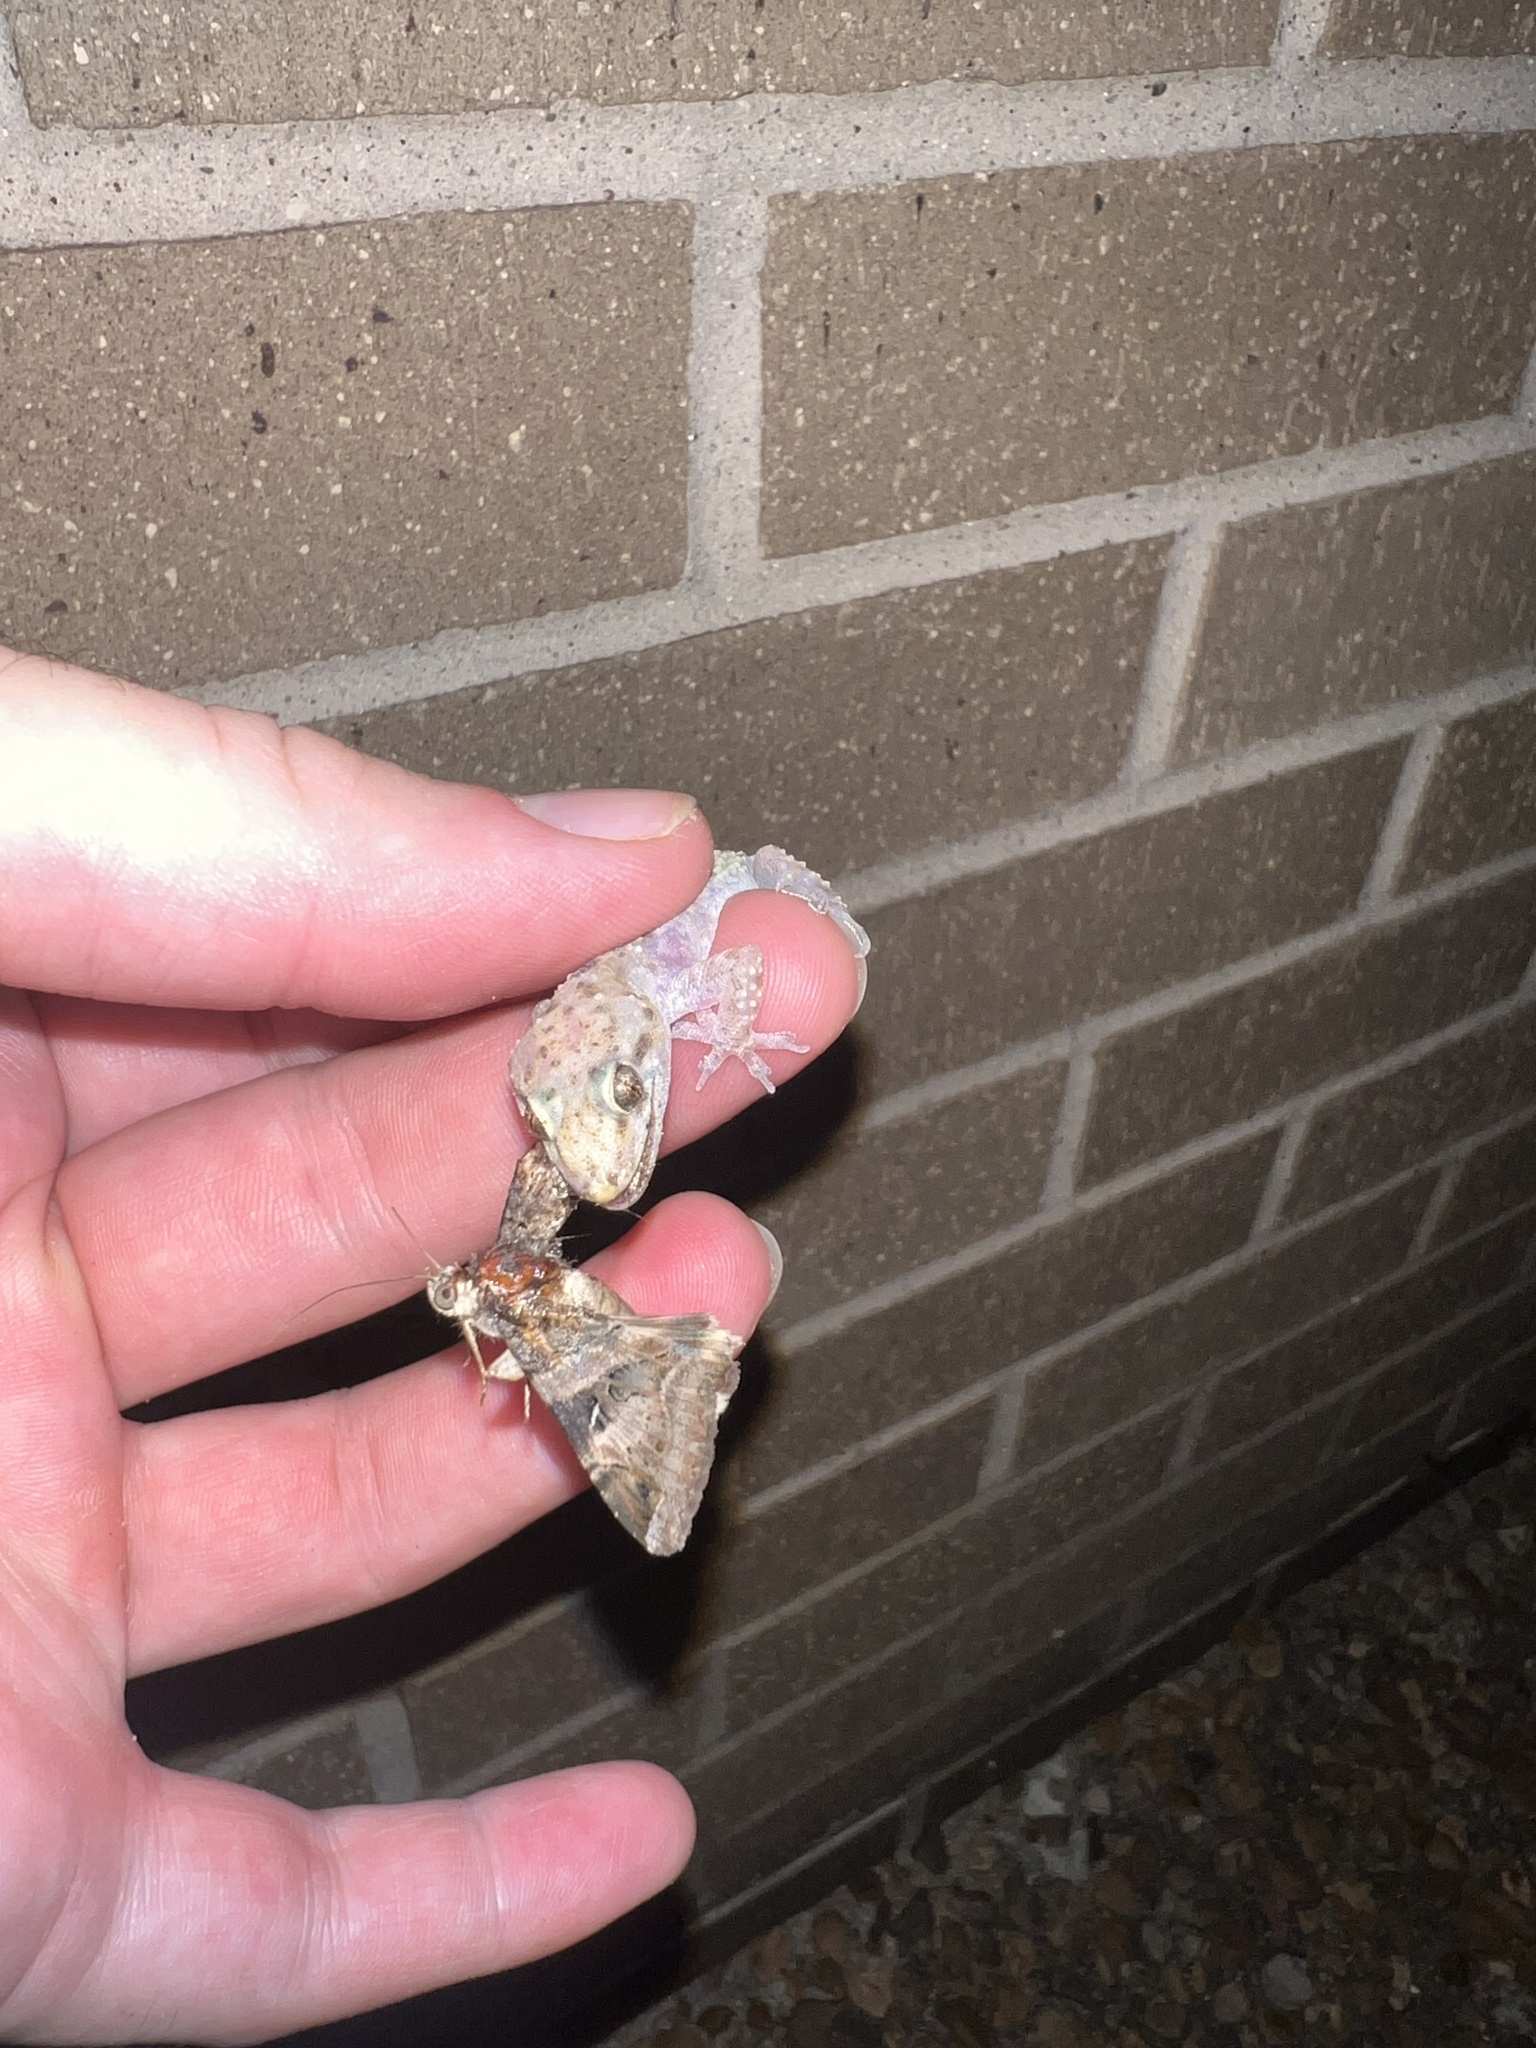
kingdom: Animalia
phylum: Chordata
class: Squamata
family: Gekkonidae
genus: Hemidactylus
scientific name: Hemidactylus turcicus
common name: Turkish gecko
